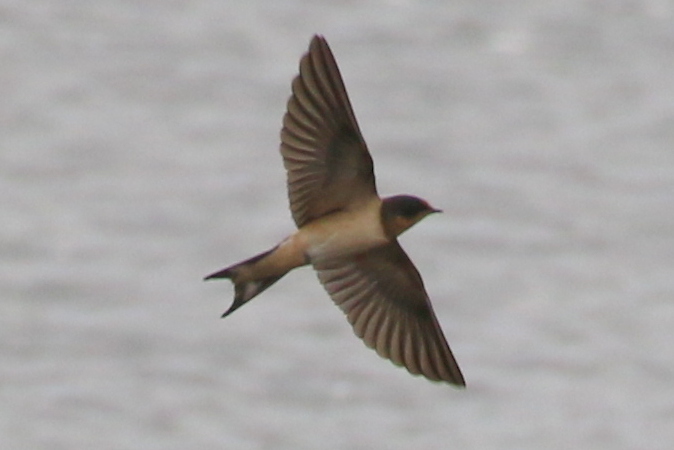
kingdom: Animalia
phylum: Chordata
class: Aves
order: Passeriformes
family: Hirundinidae
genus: Hirundo
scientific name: Hirundo rustica
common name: Barn swallow
